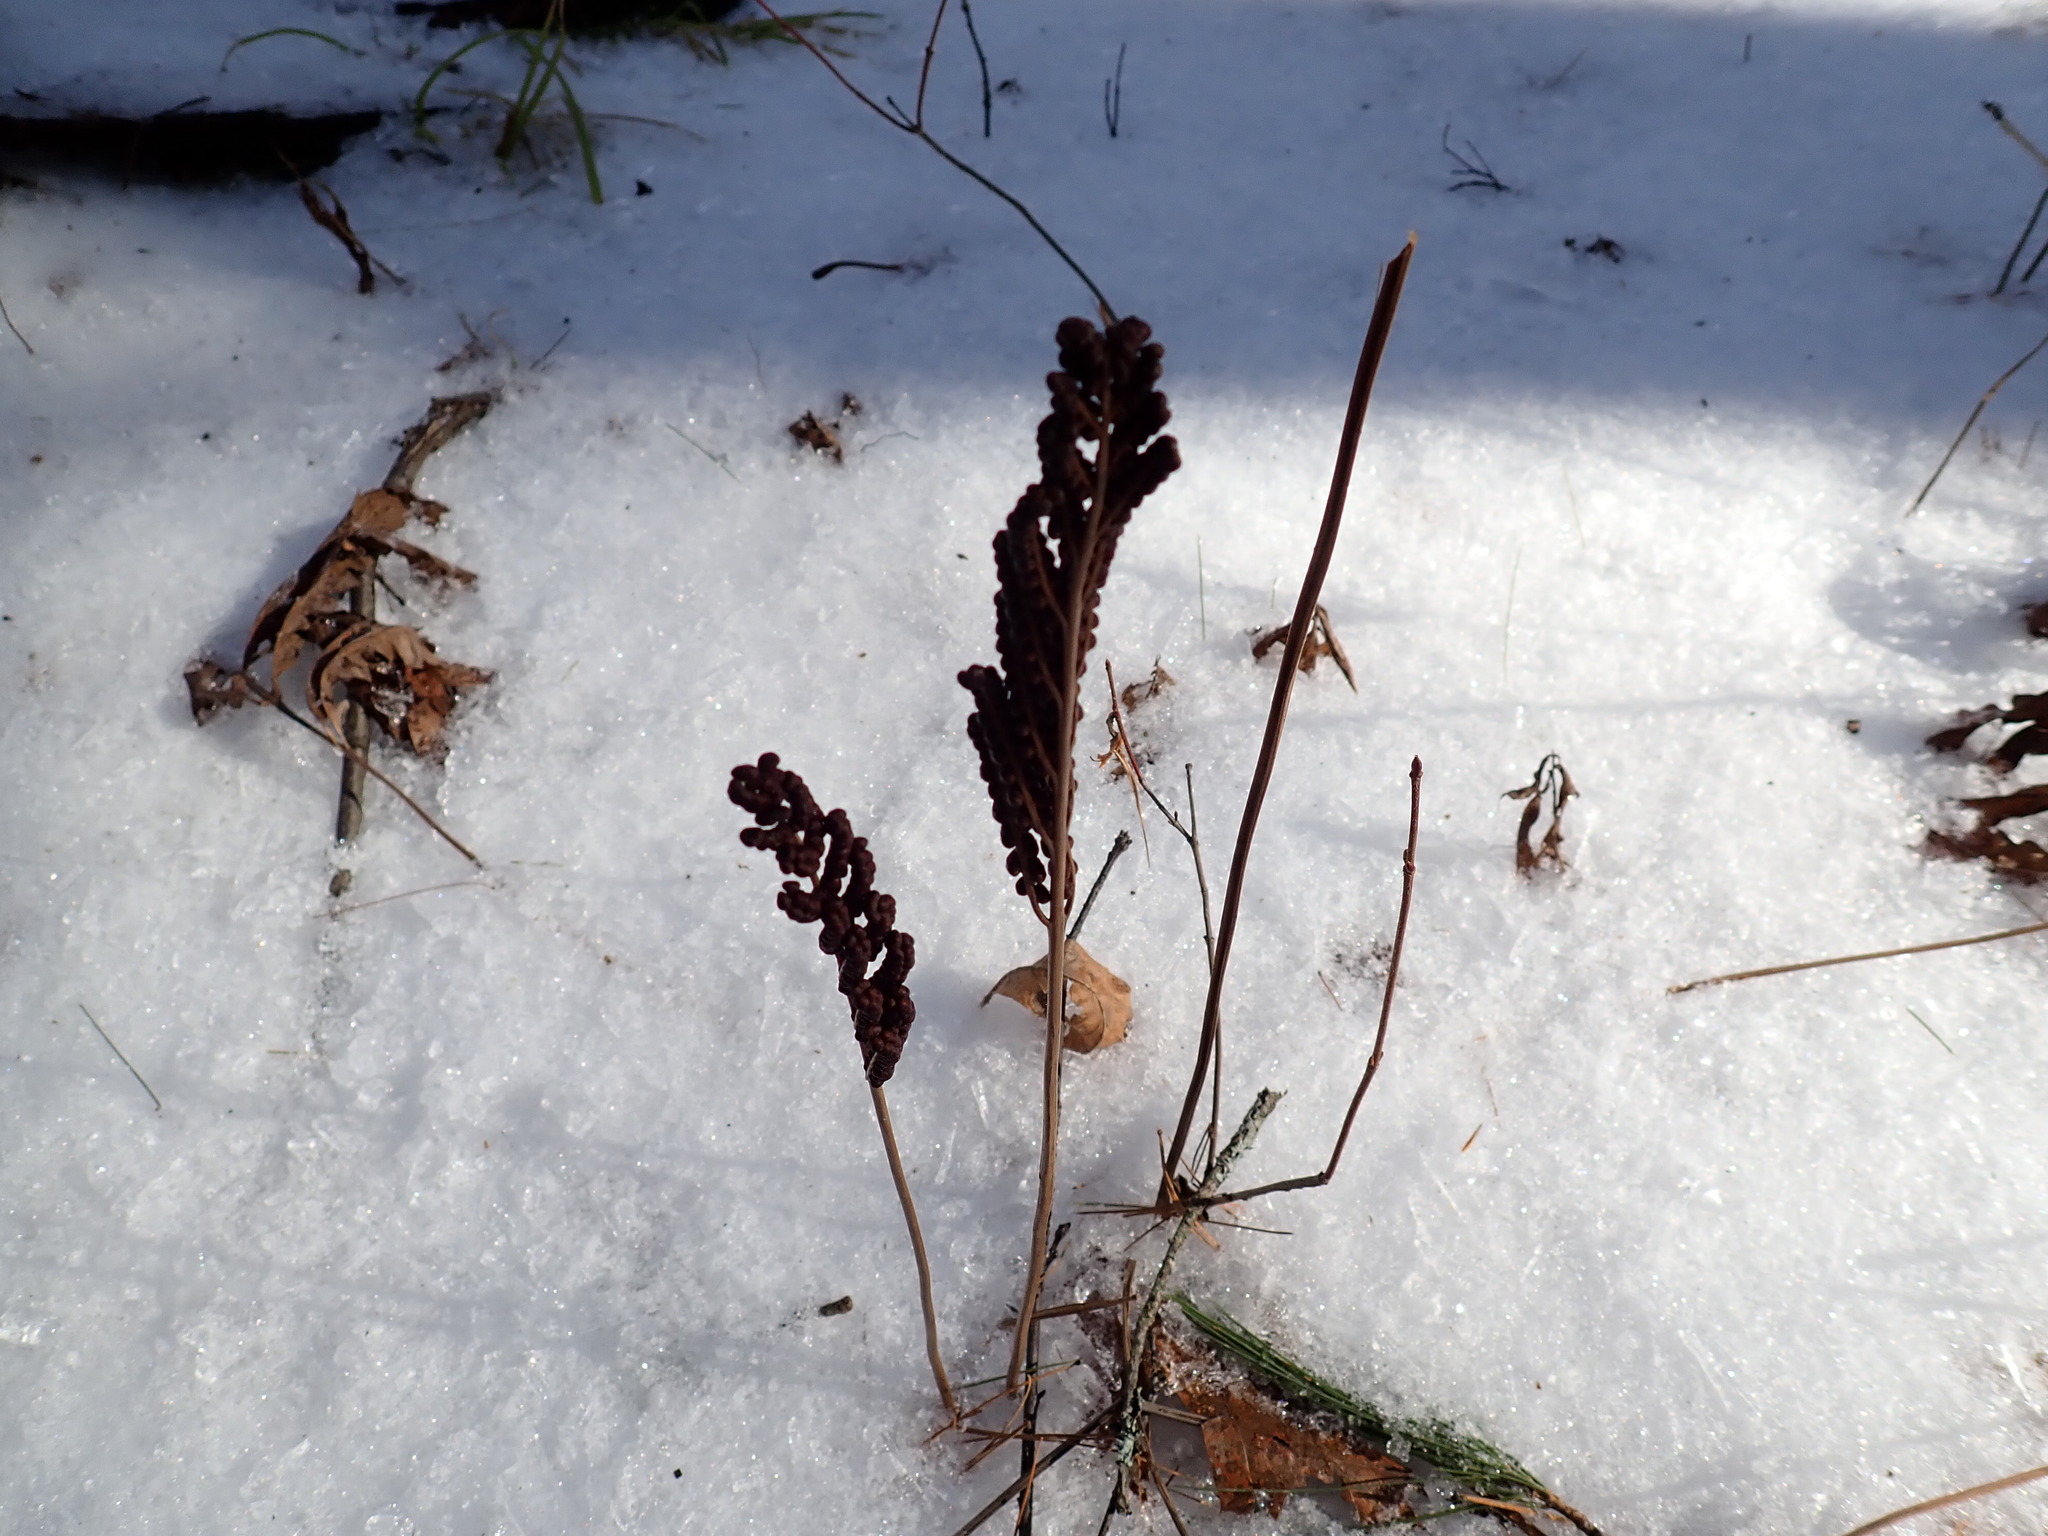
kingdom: Plantae
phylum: Tracheophyta
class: Polypodiopsida
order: Polypodiales
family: Onocleaceae
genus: Onoclea
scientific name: Onoclea sensibilis
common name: Sensitive fern
